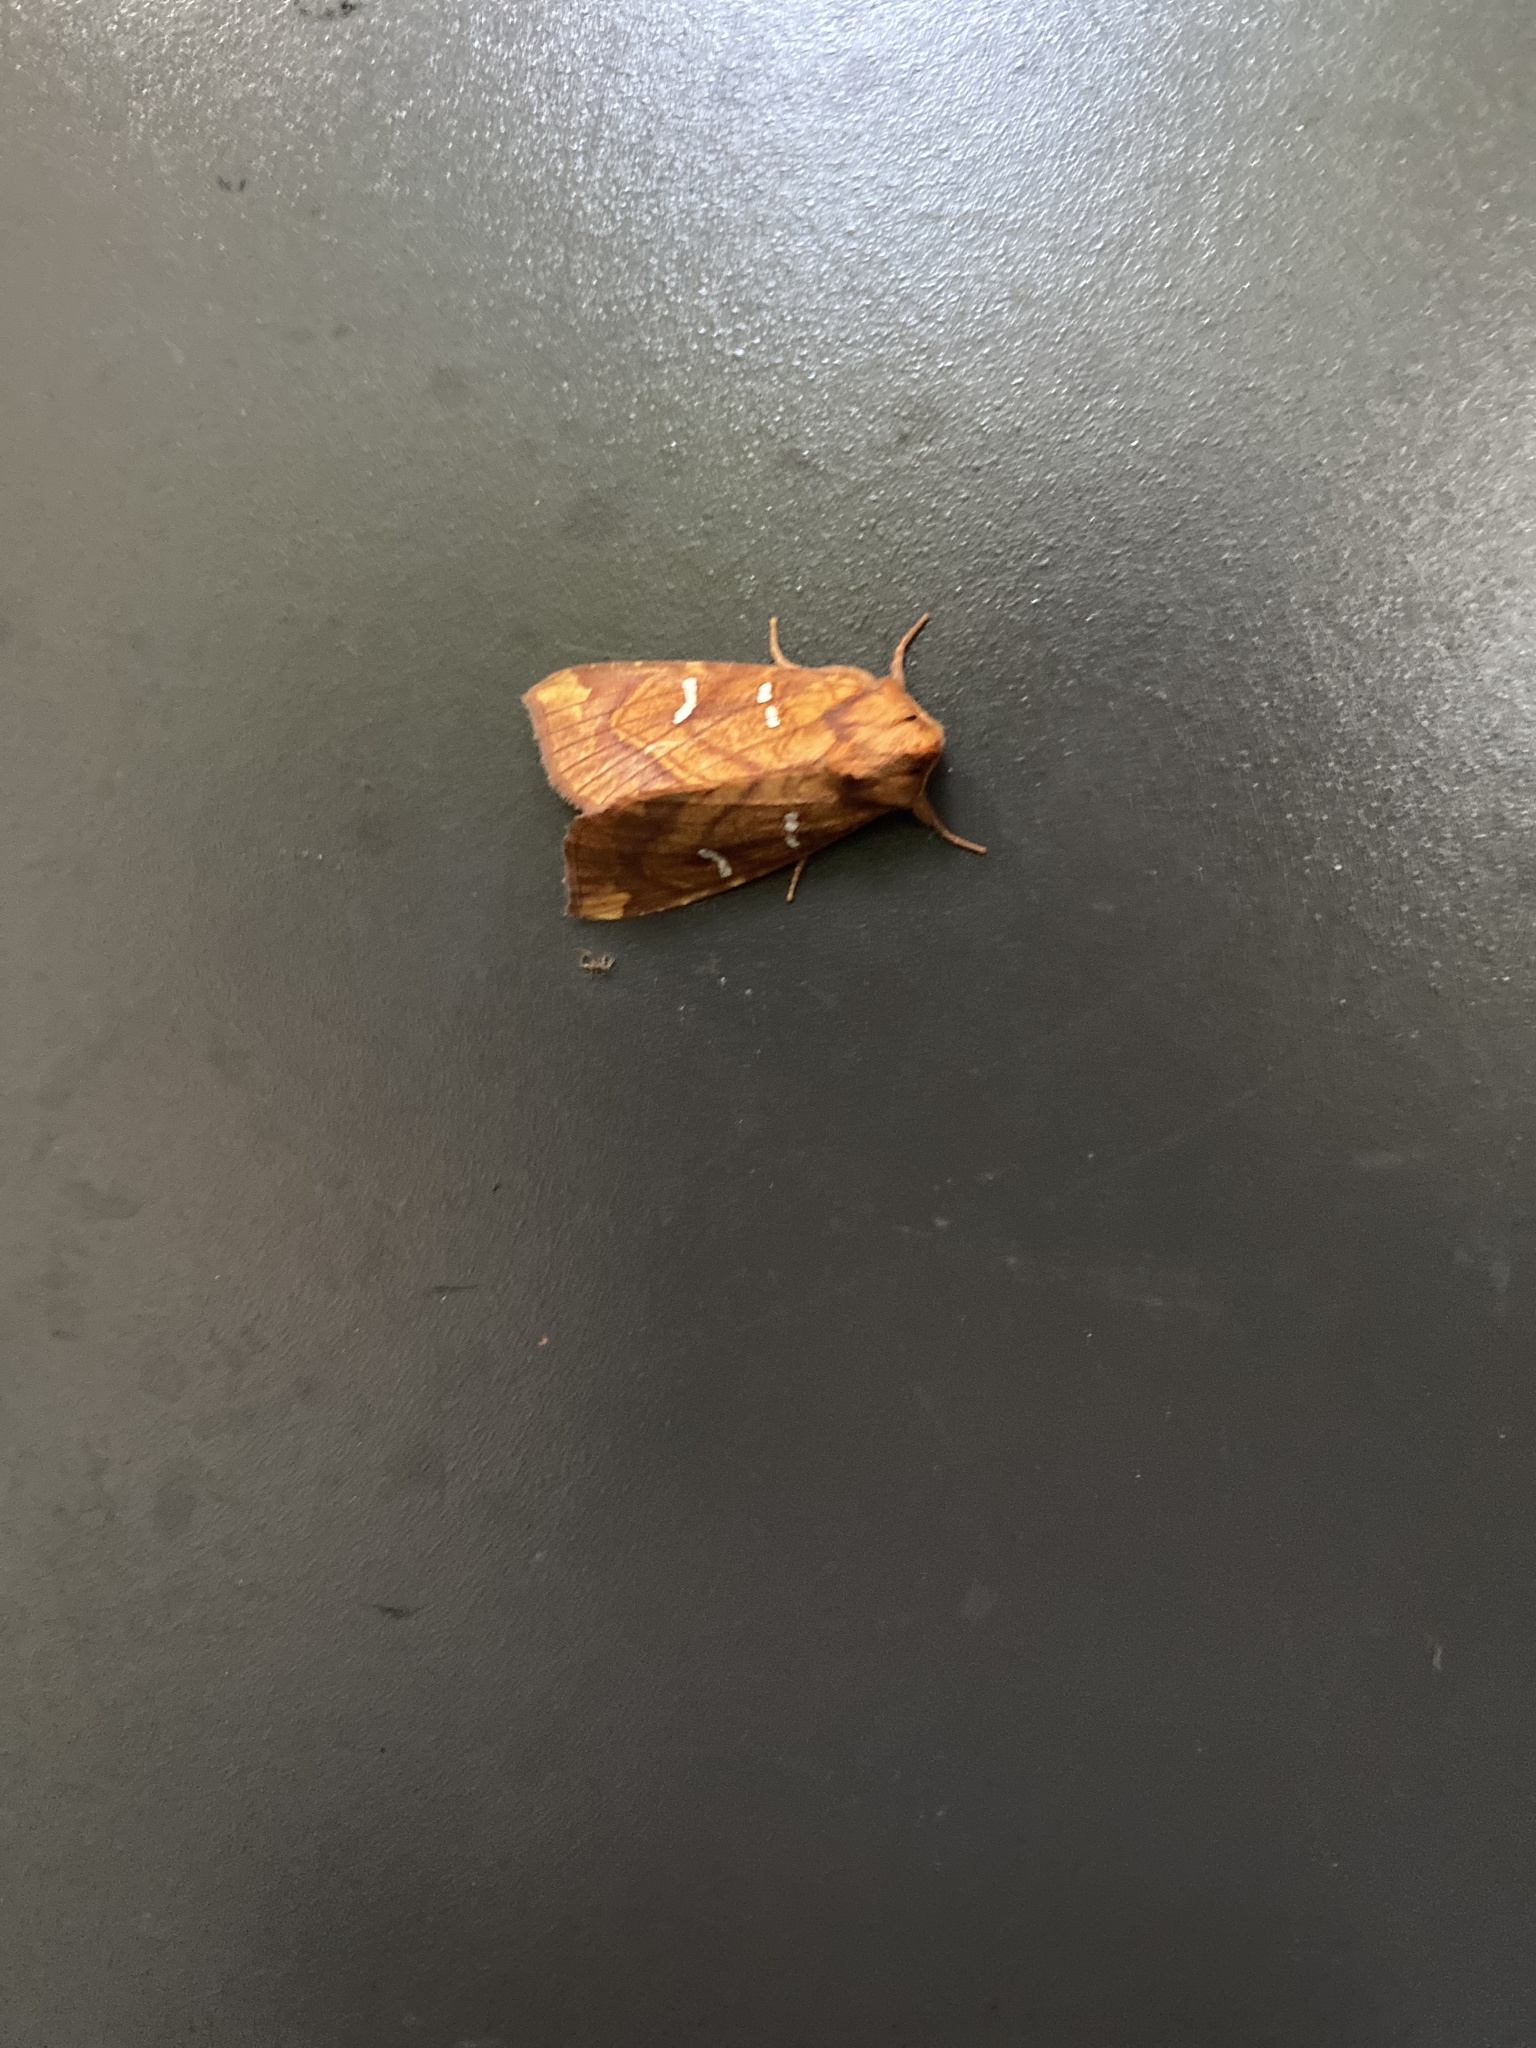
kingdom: Animalia
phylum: Arthropoda
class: Insecta
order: Lepidoptera
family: Noctuidae
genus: Papaipema
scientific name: Papaipema speciosissima
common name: Osmunda borer moth
